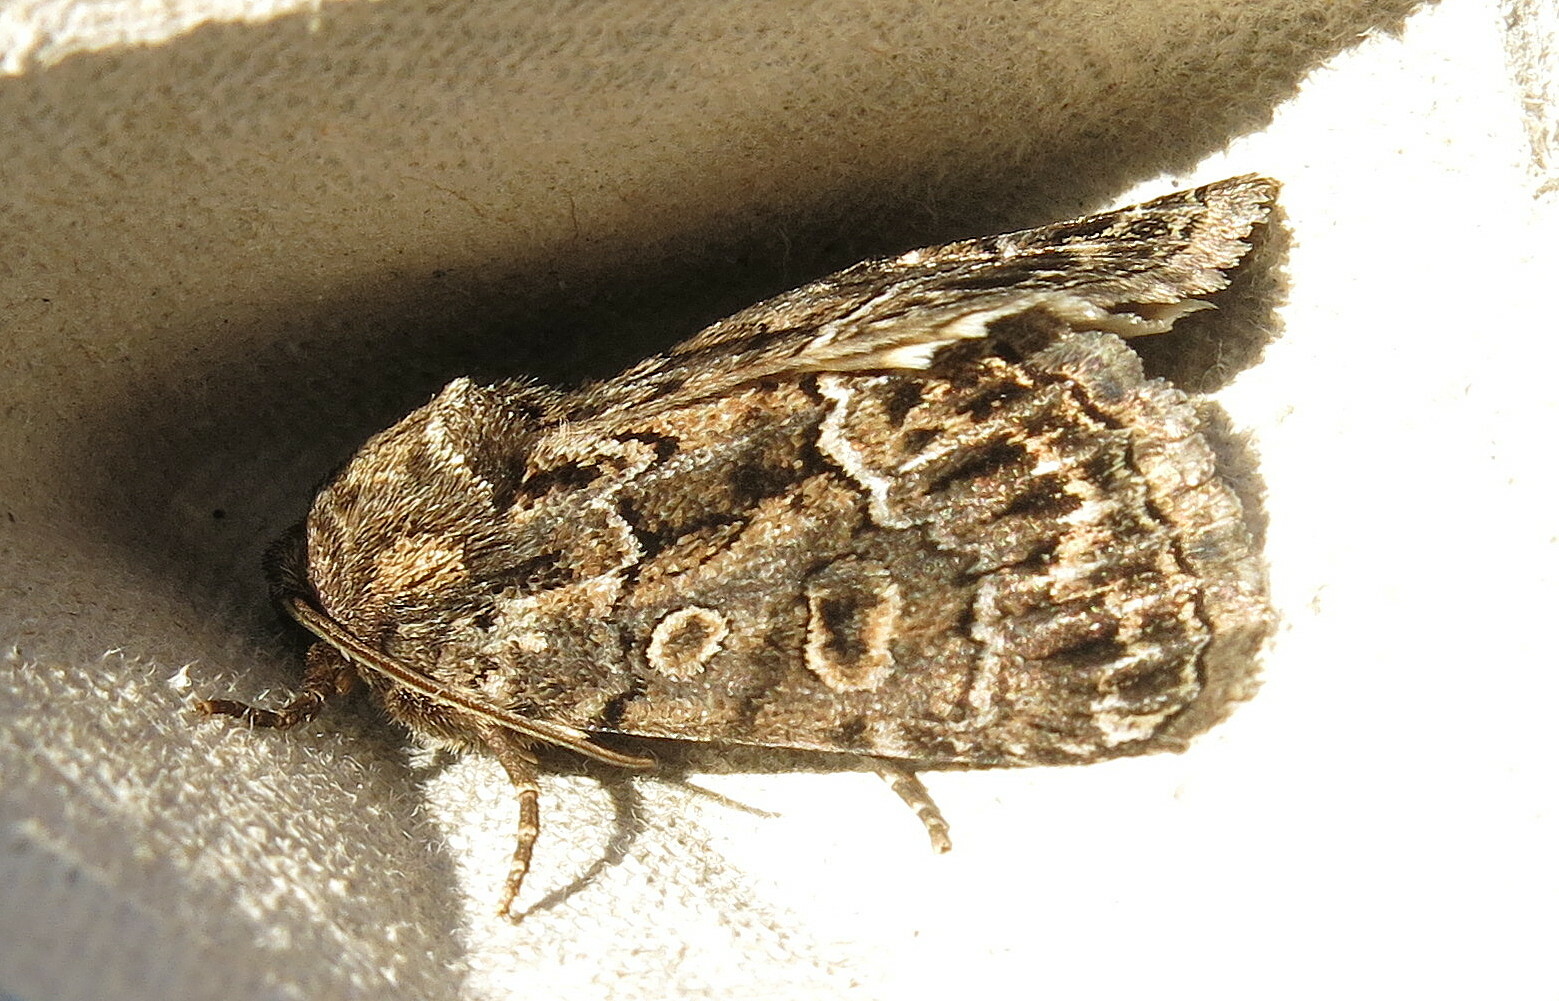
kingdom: Animalia
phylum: Arthropoda
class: Insecta
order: Lepidoptera
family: Noctuidae
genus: Thalpophila
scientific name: Thalpophila matura
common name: Straw underwing
